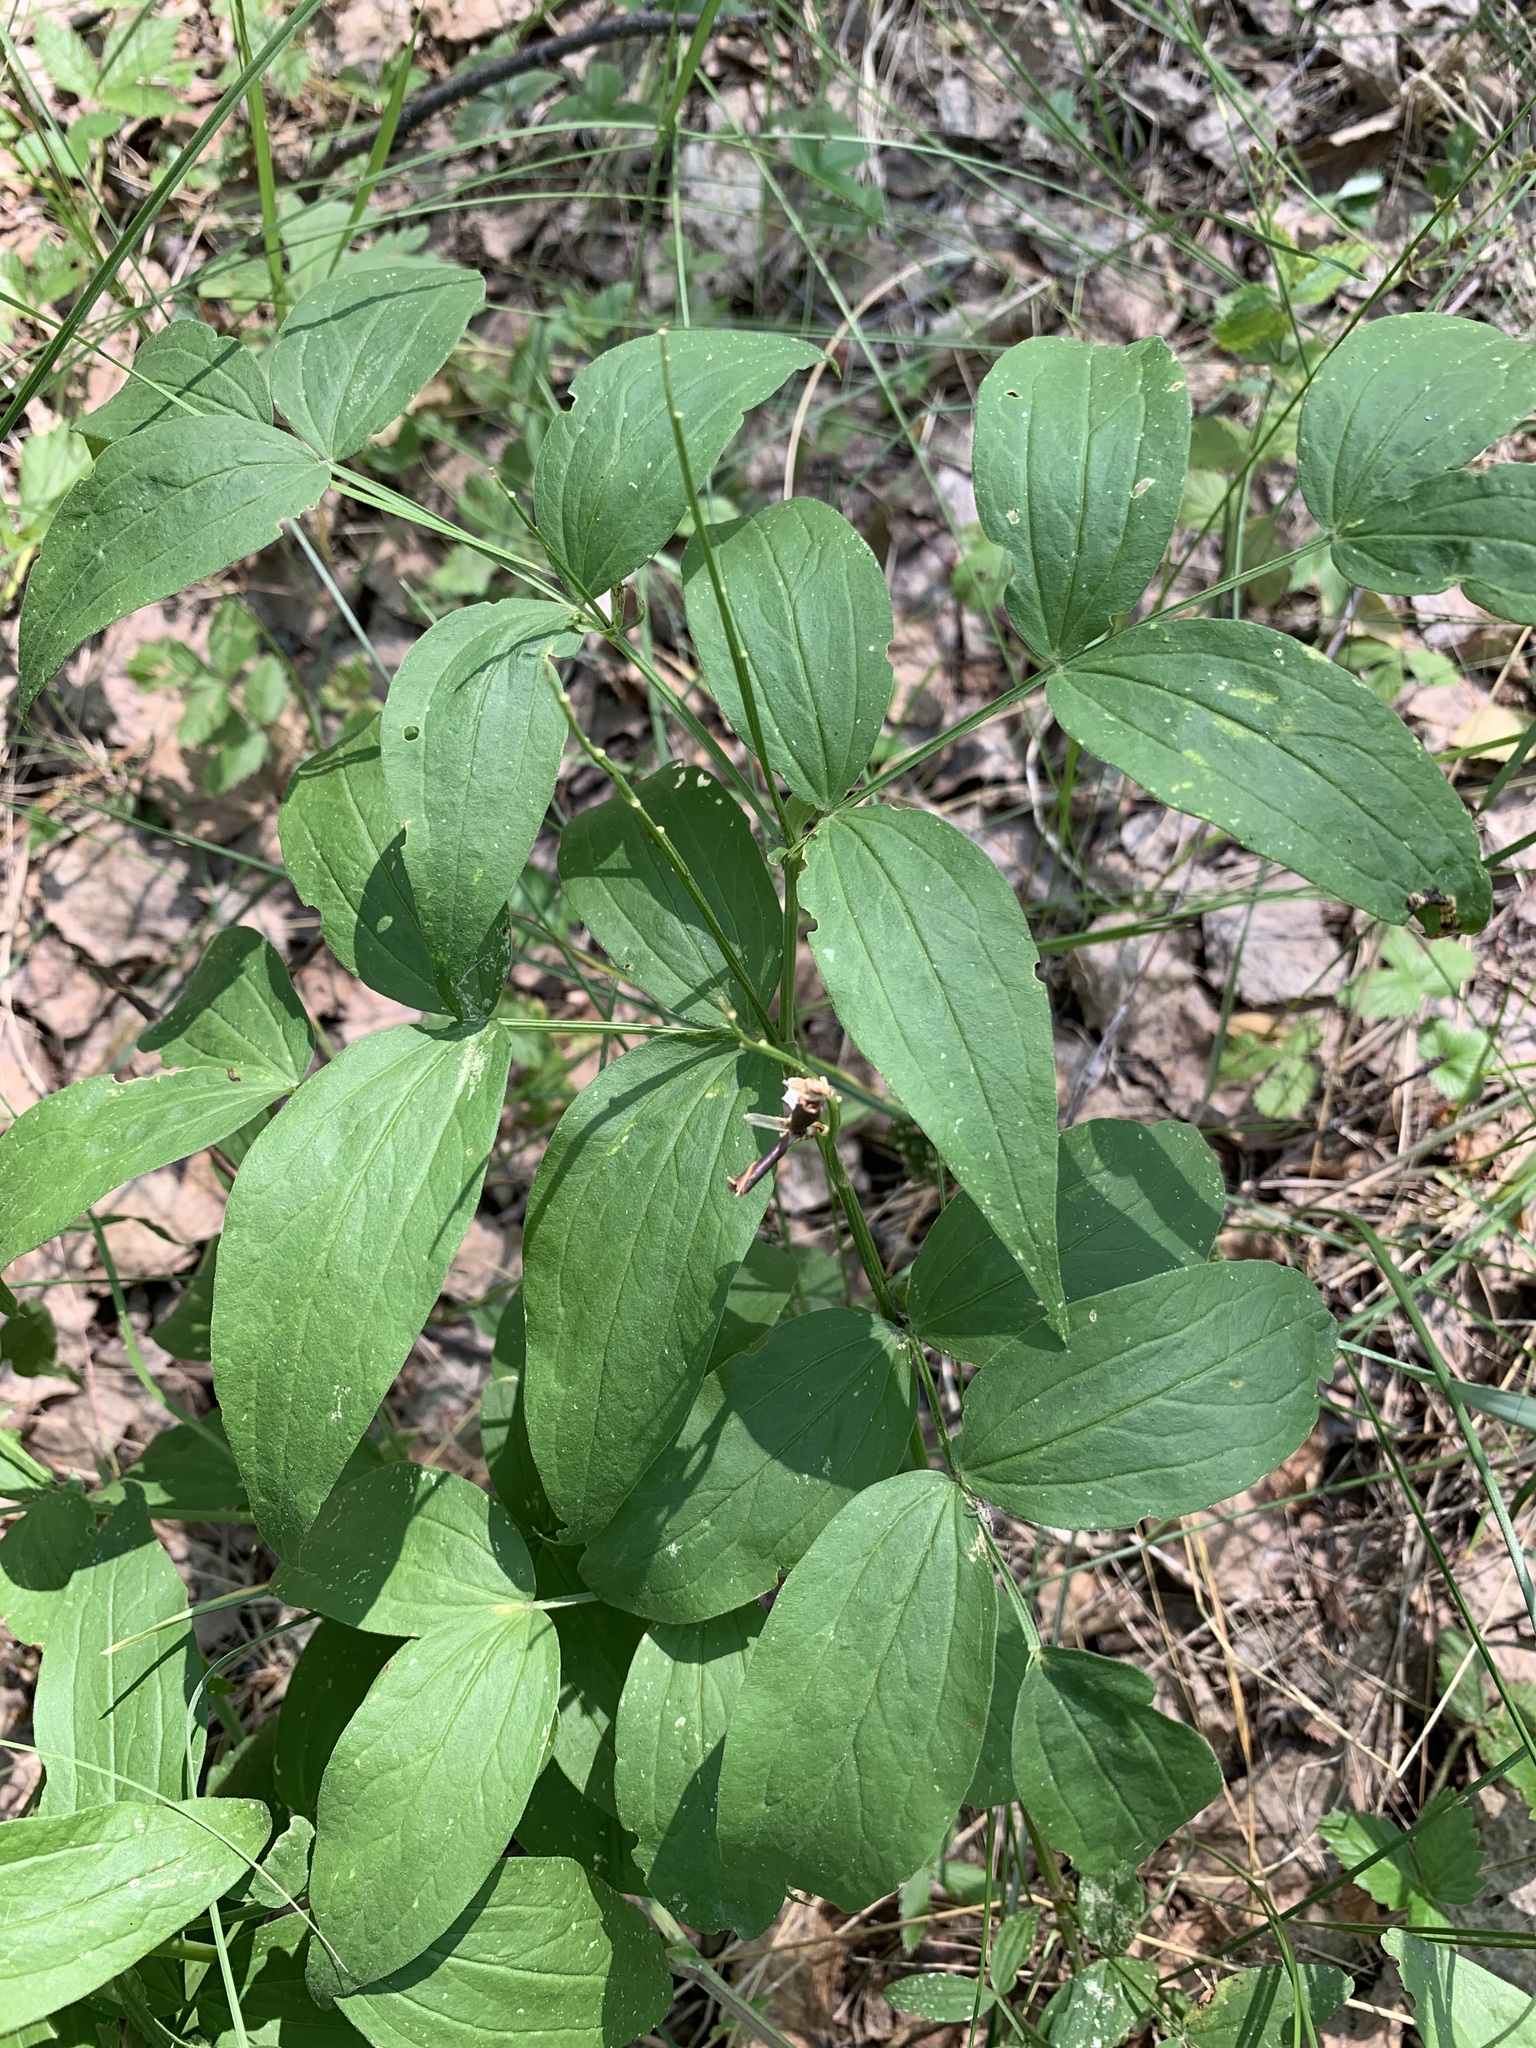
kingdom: Plantae
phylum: Tracheophyta
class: Magnoliopsida
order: Fabales
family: Fabaceae
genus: Lathyrus
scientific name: Lathyrus vernus
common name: Spring pea
